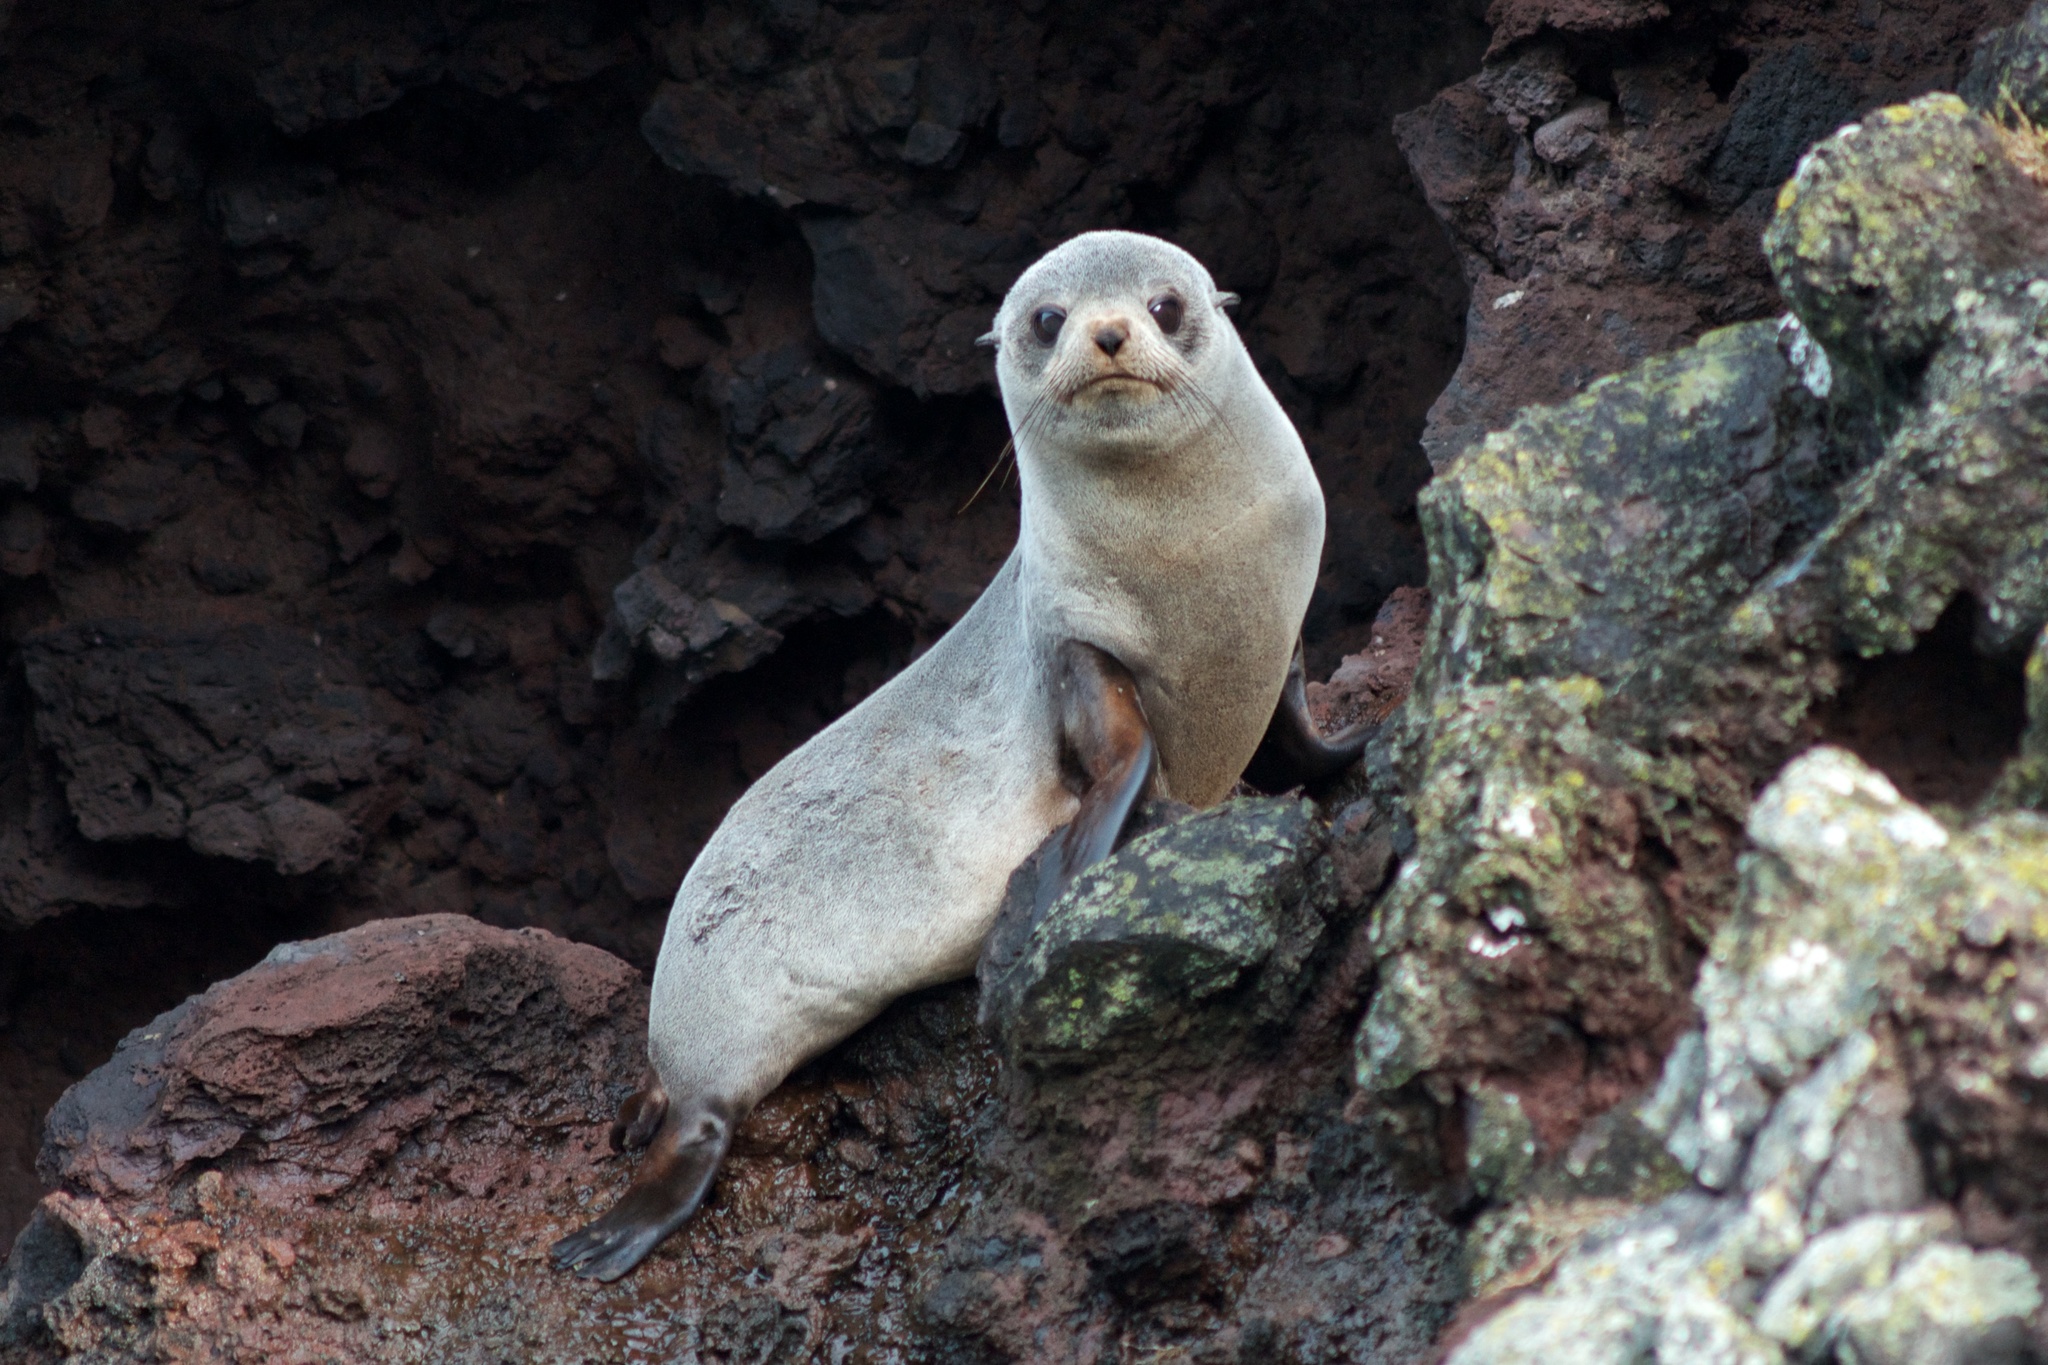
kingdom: Animalia
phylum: Chordata
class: Mammalia
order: Carnivora
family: Otariidae
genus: Arctocephalus
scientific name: Arctocephalus forsteri
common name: New zealand fur seal
